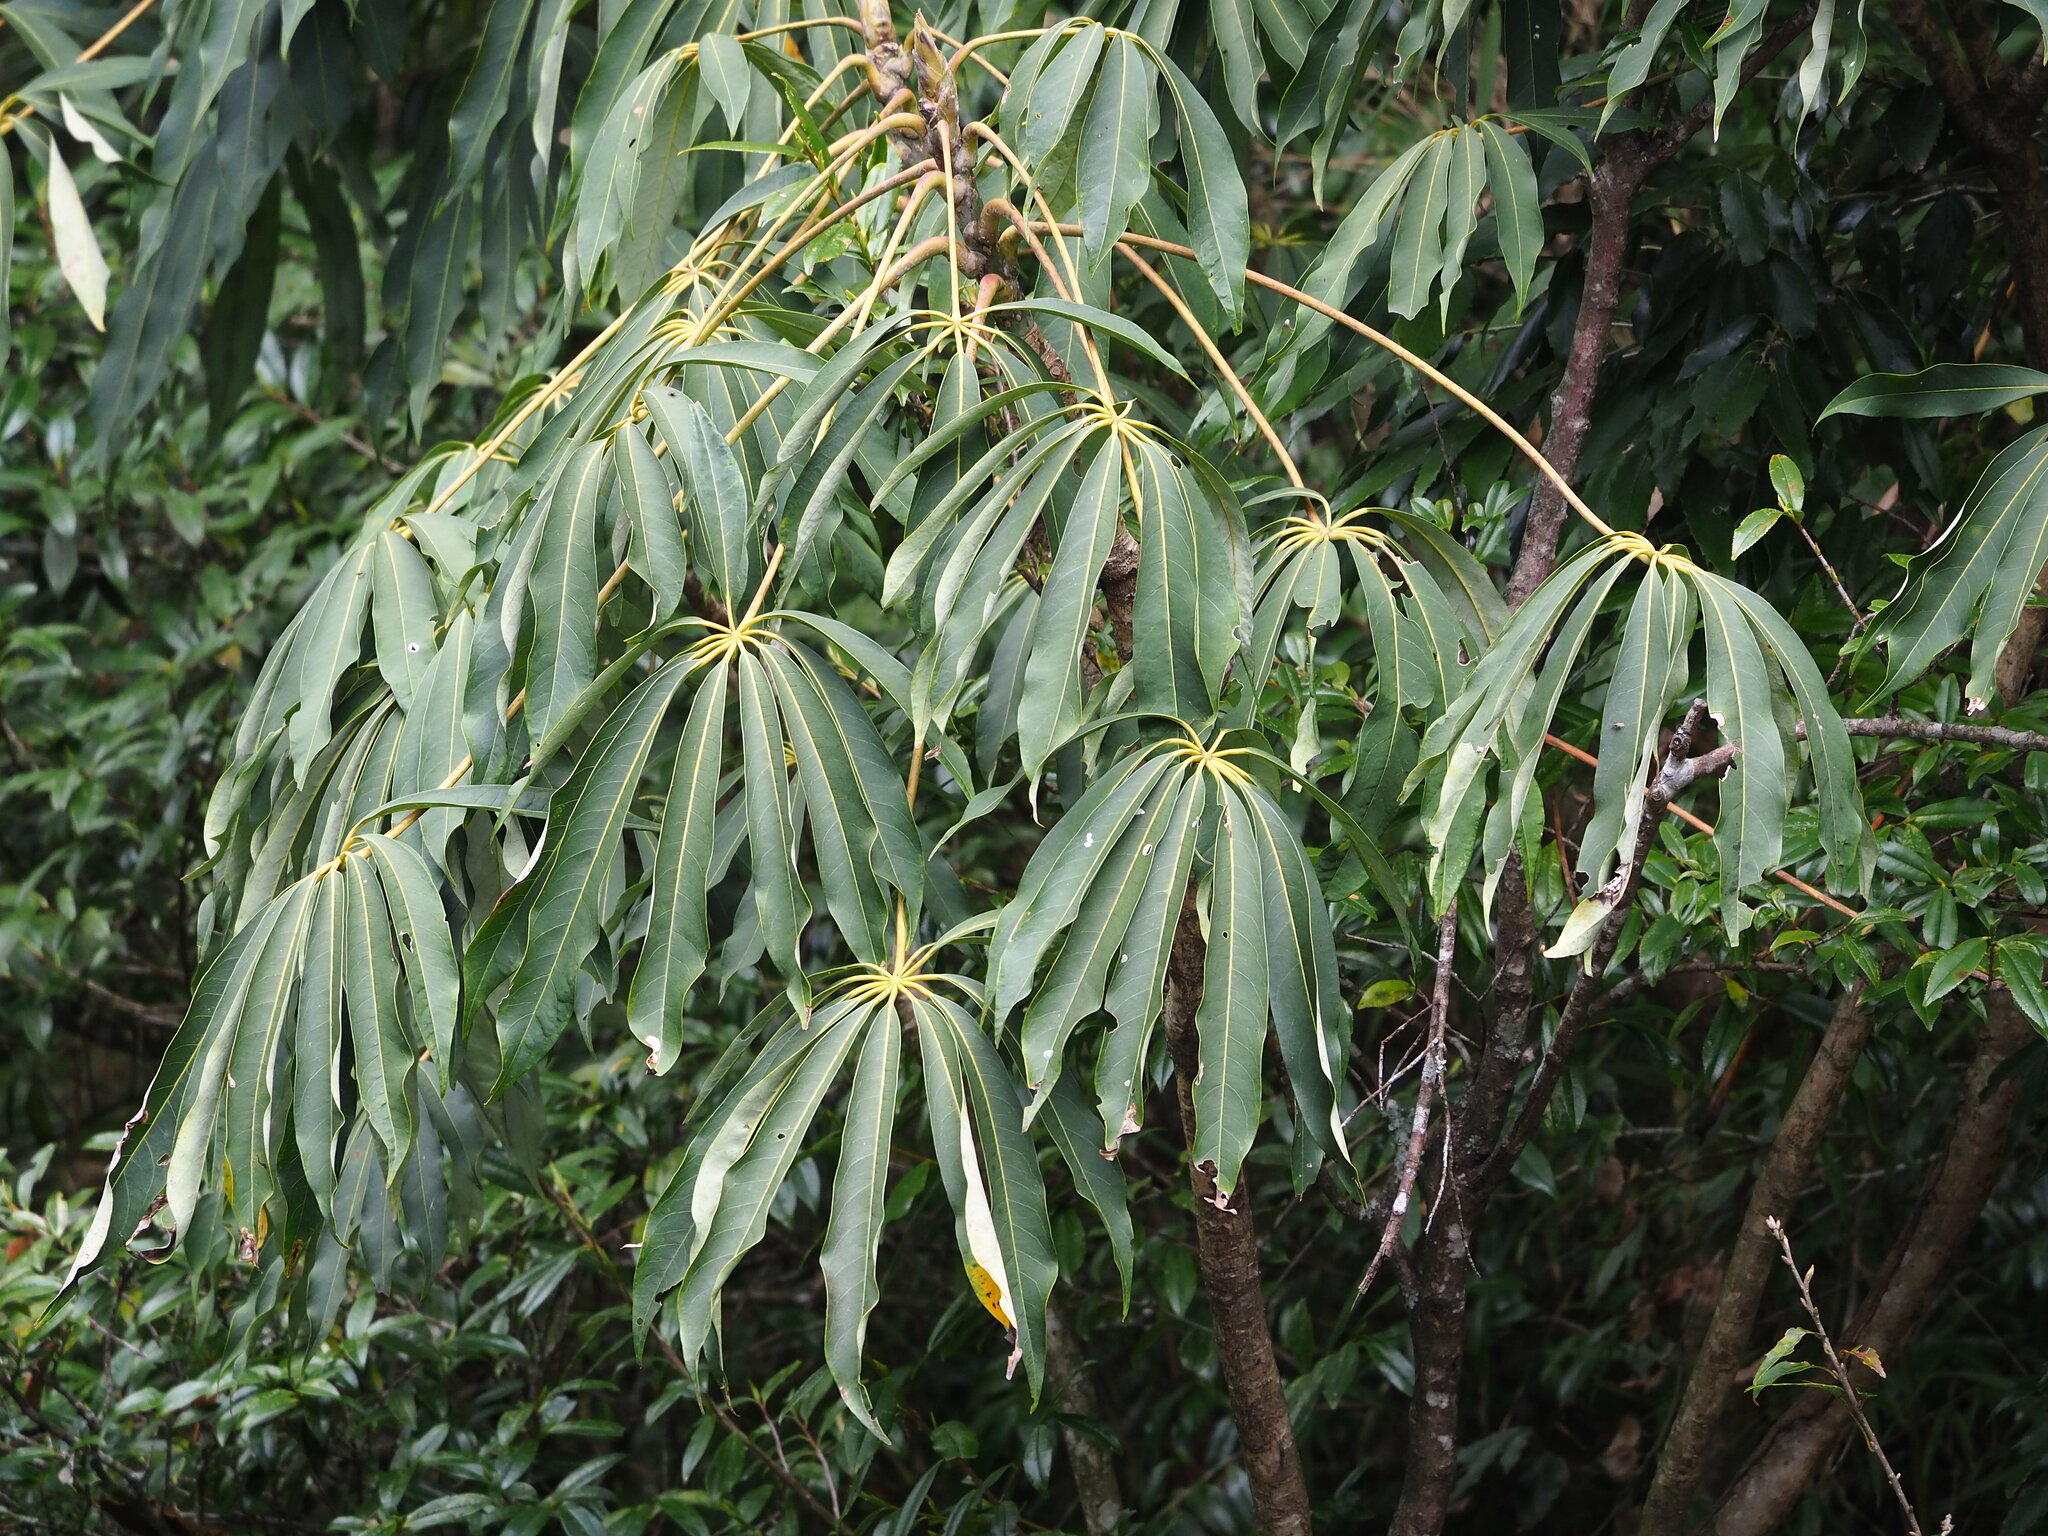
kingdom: Plantae
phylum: Tracheophyta
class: Magnoliopsida
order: Apiales
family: Araliaceae
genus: Heptapleurum
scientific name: Heptapleurum taiwanianum
